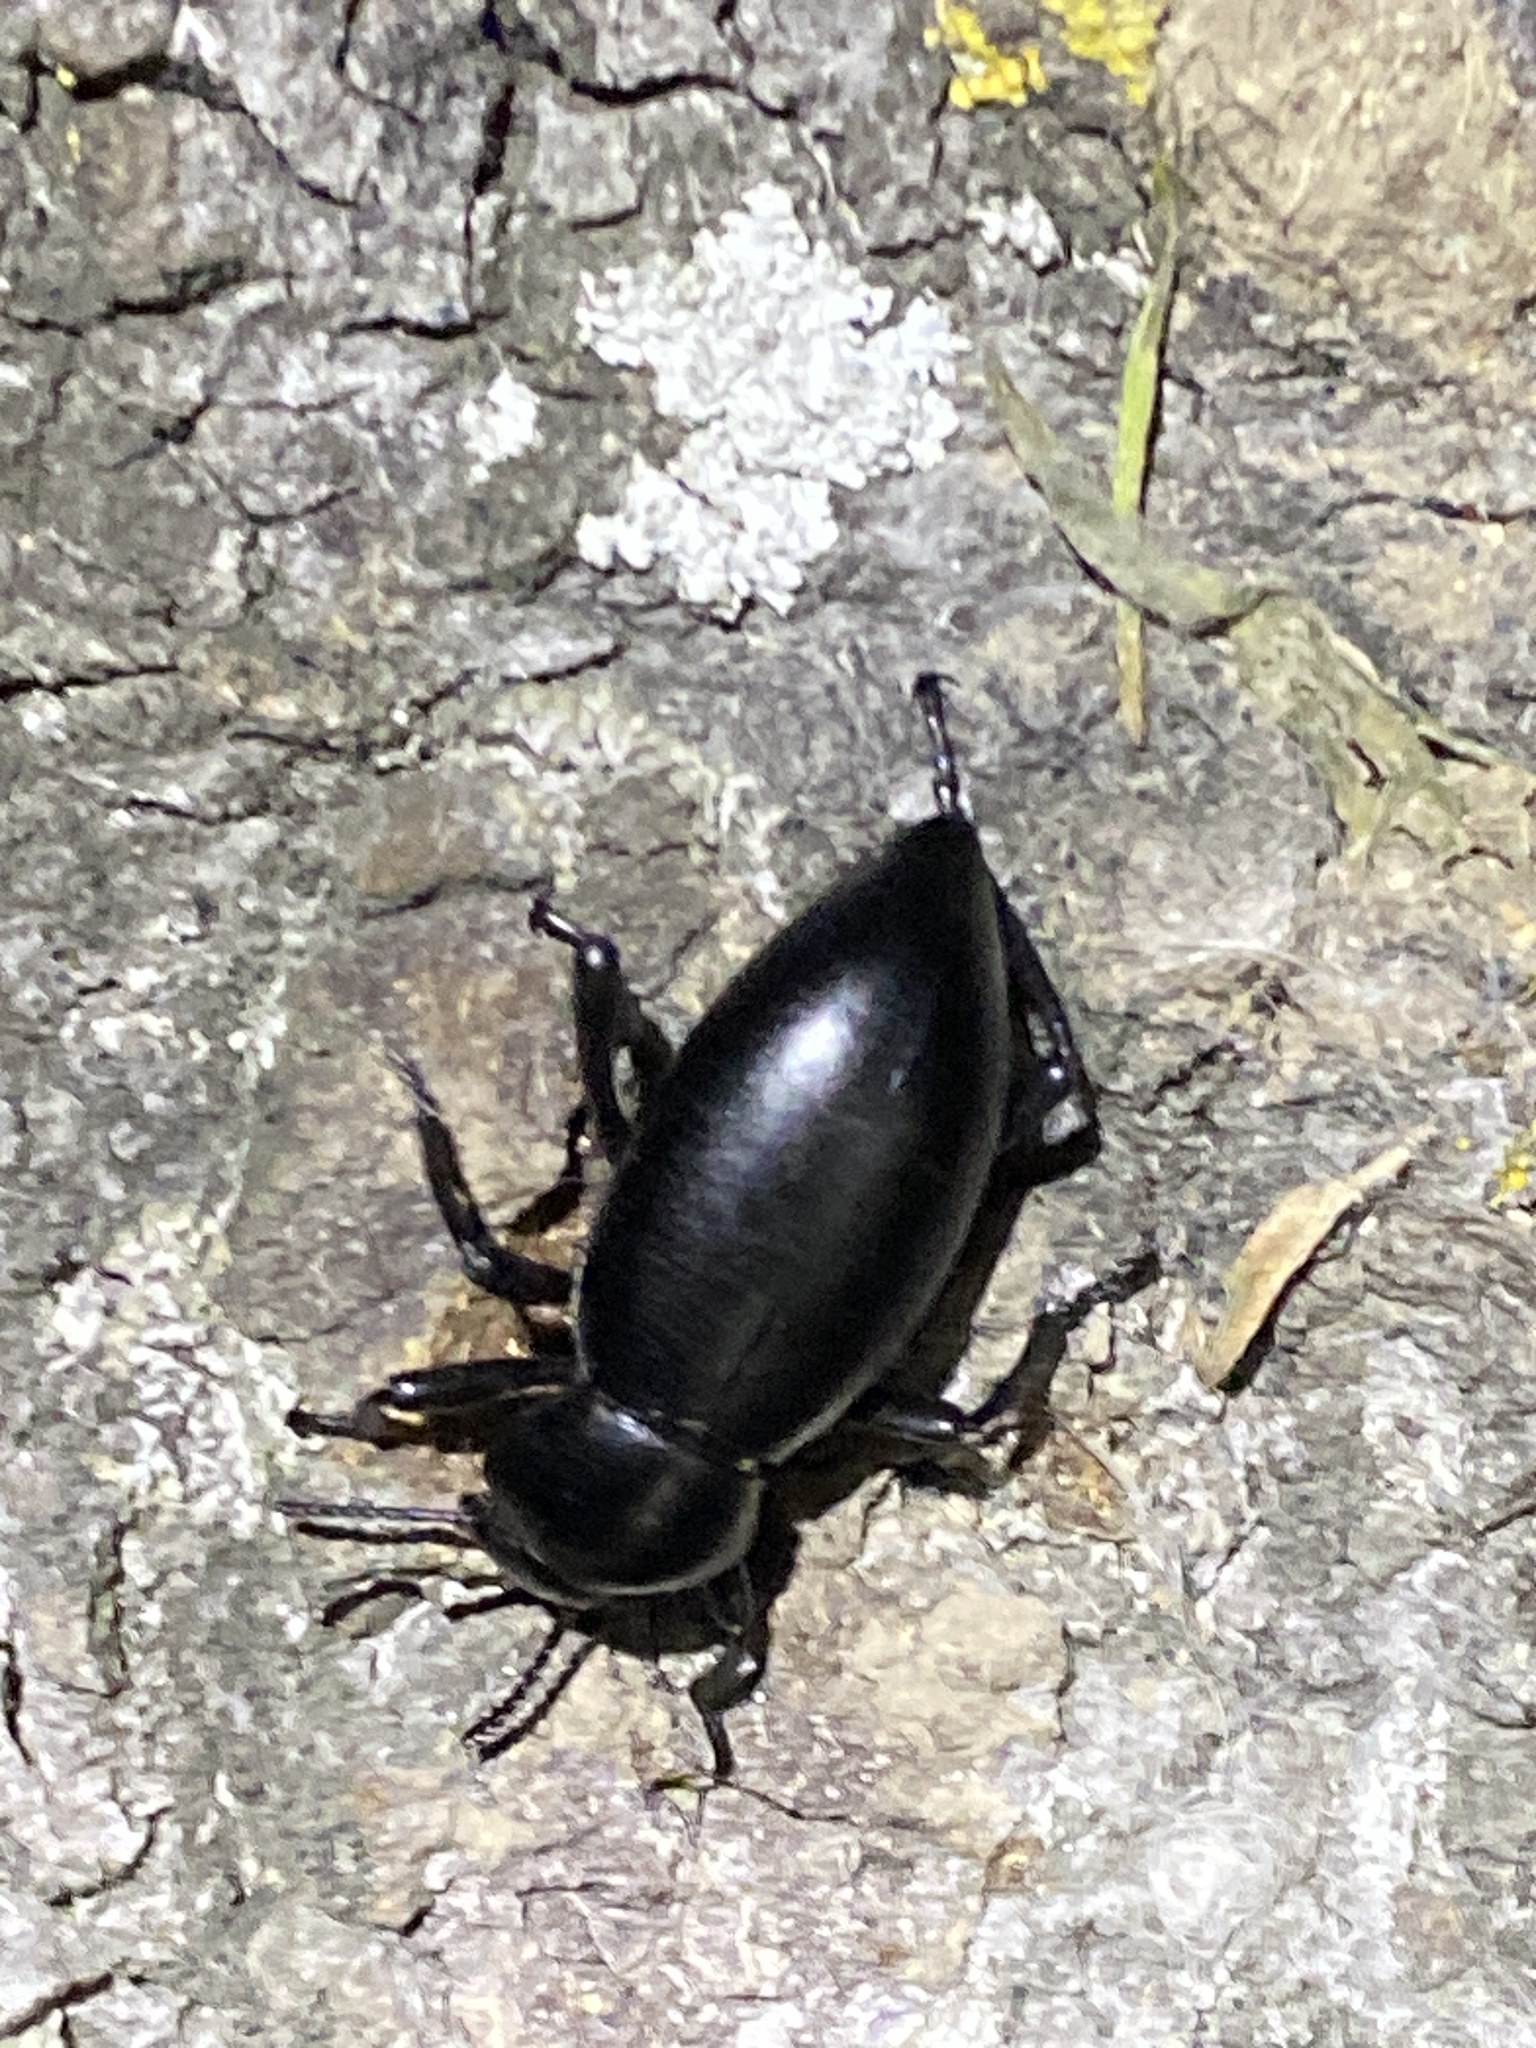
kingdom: Animalia
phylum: Arthropoda
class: Insecta
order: Coleoptera
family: Tenebrionidae
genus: Eleodes
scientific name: Eleodes dentipes
